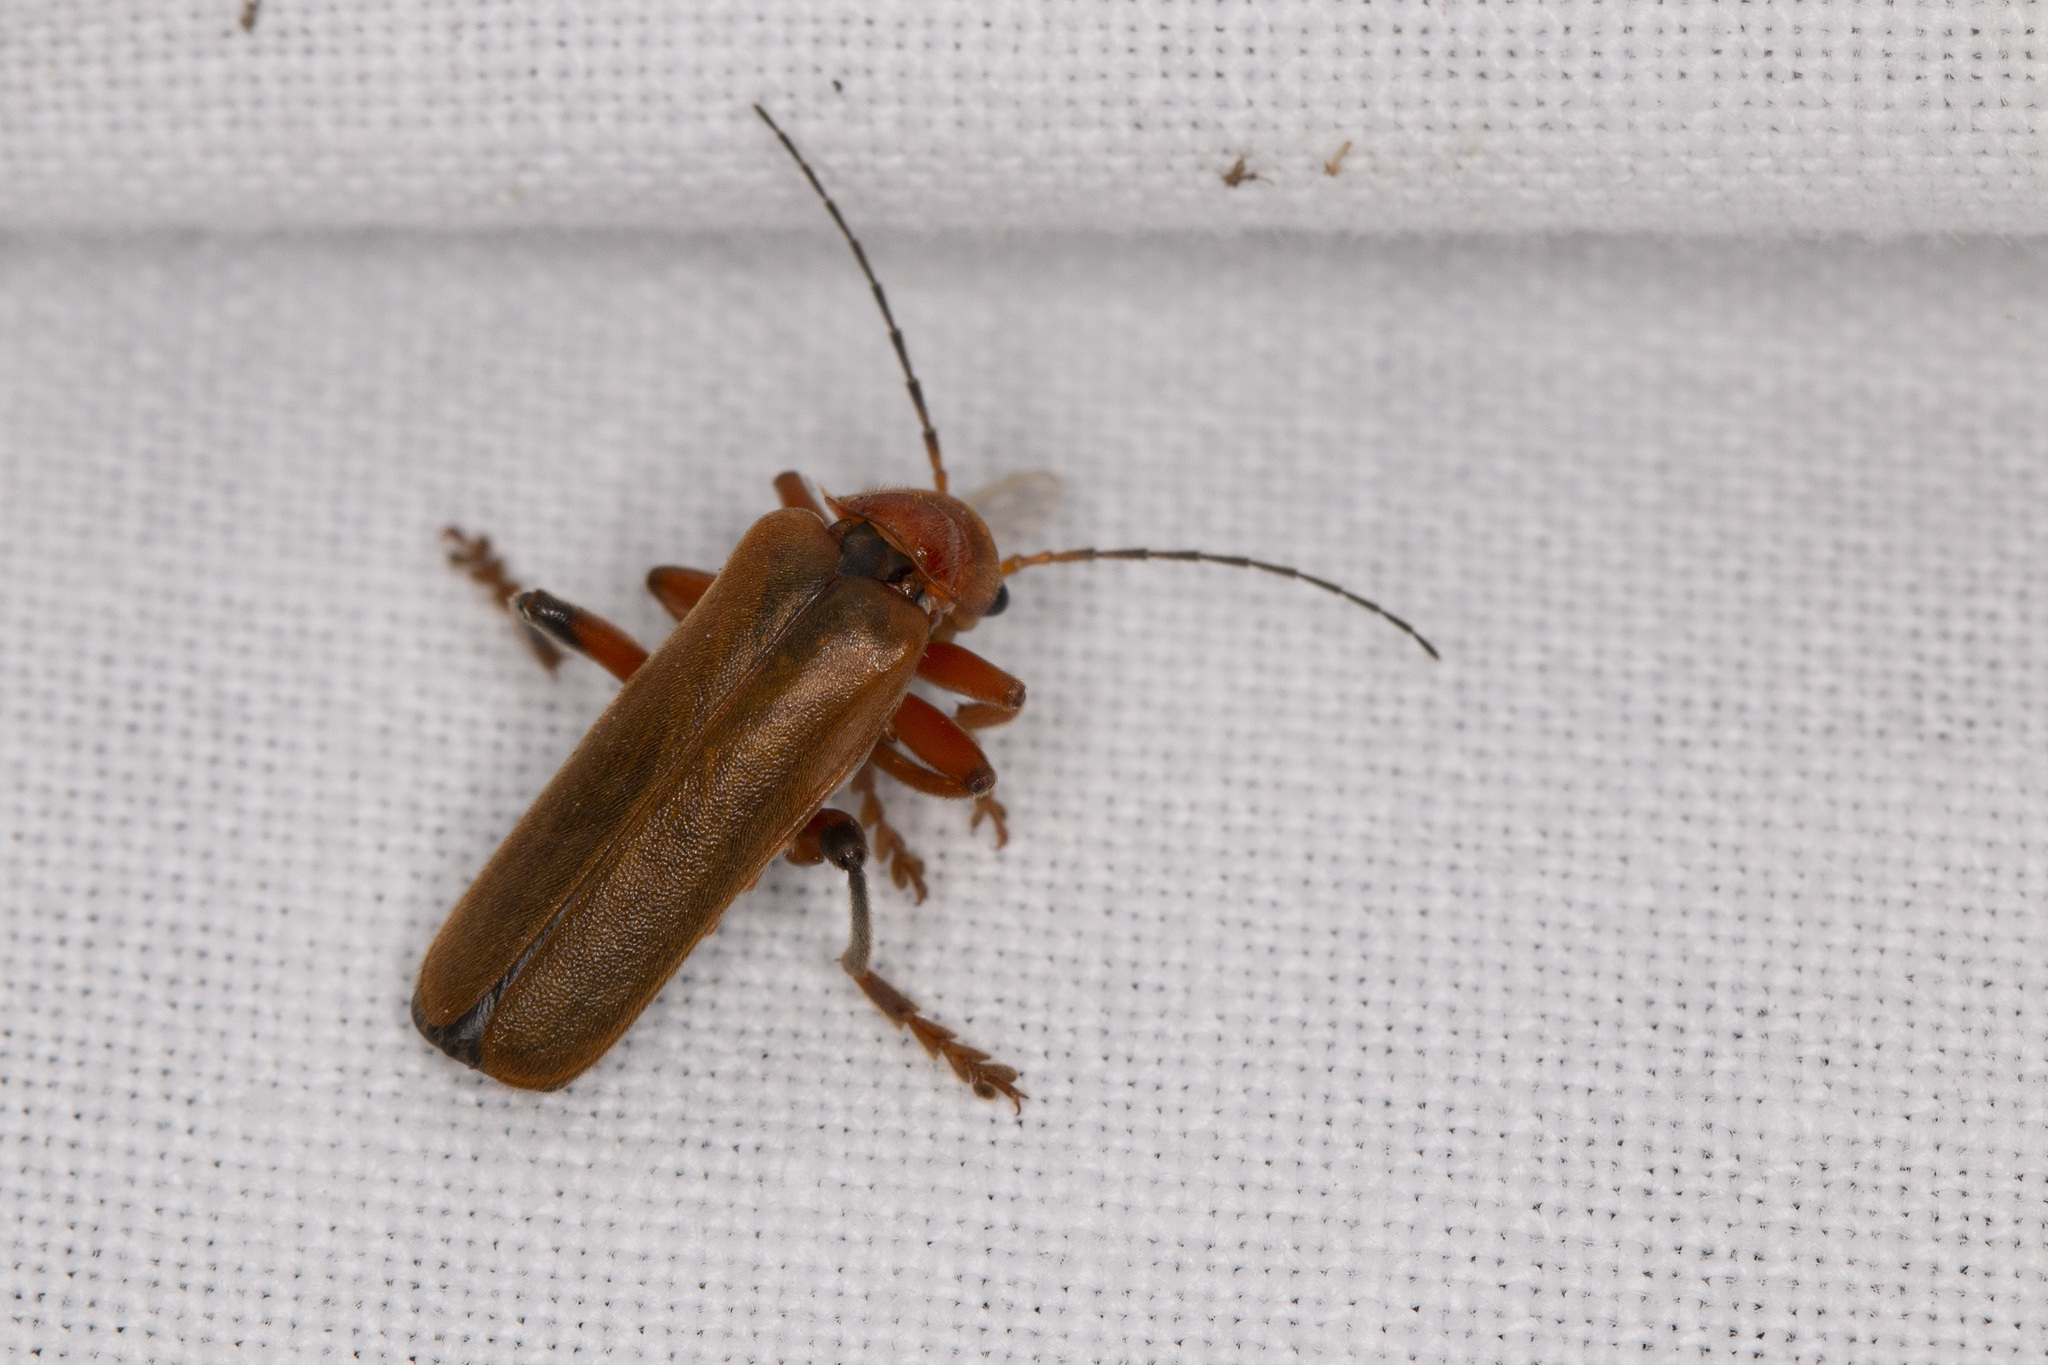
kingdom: Animalia
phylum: Arthropoda
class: Insecta
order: Coleoptera
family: Cantharidae
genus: Cantharis
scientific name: Cantharis livida
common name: Livid soldier beetle
